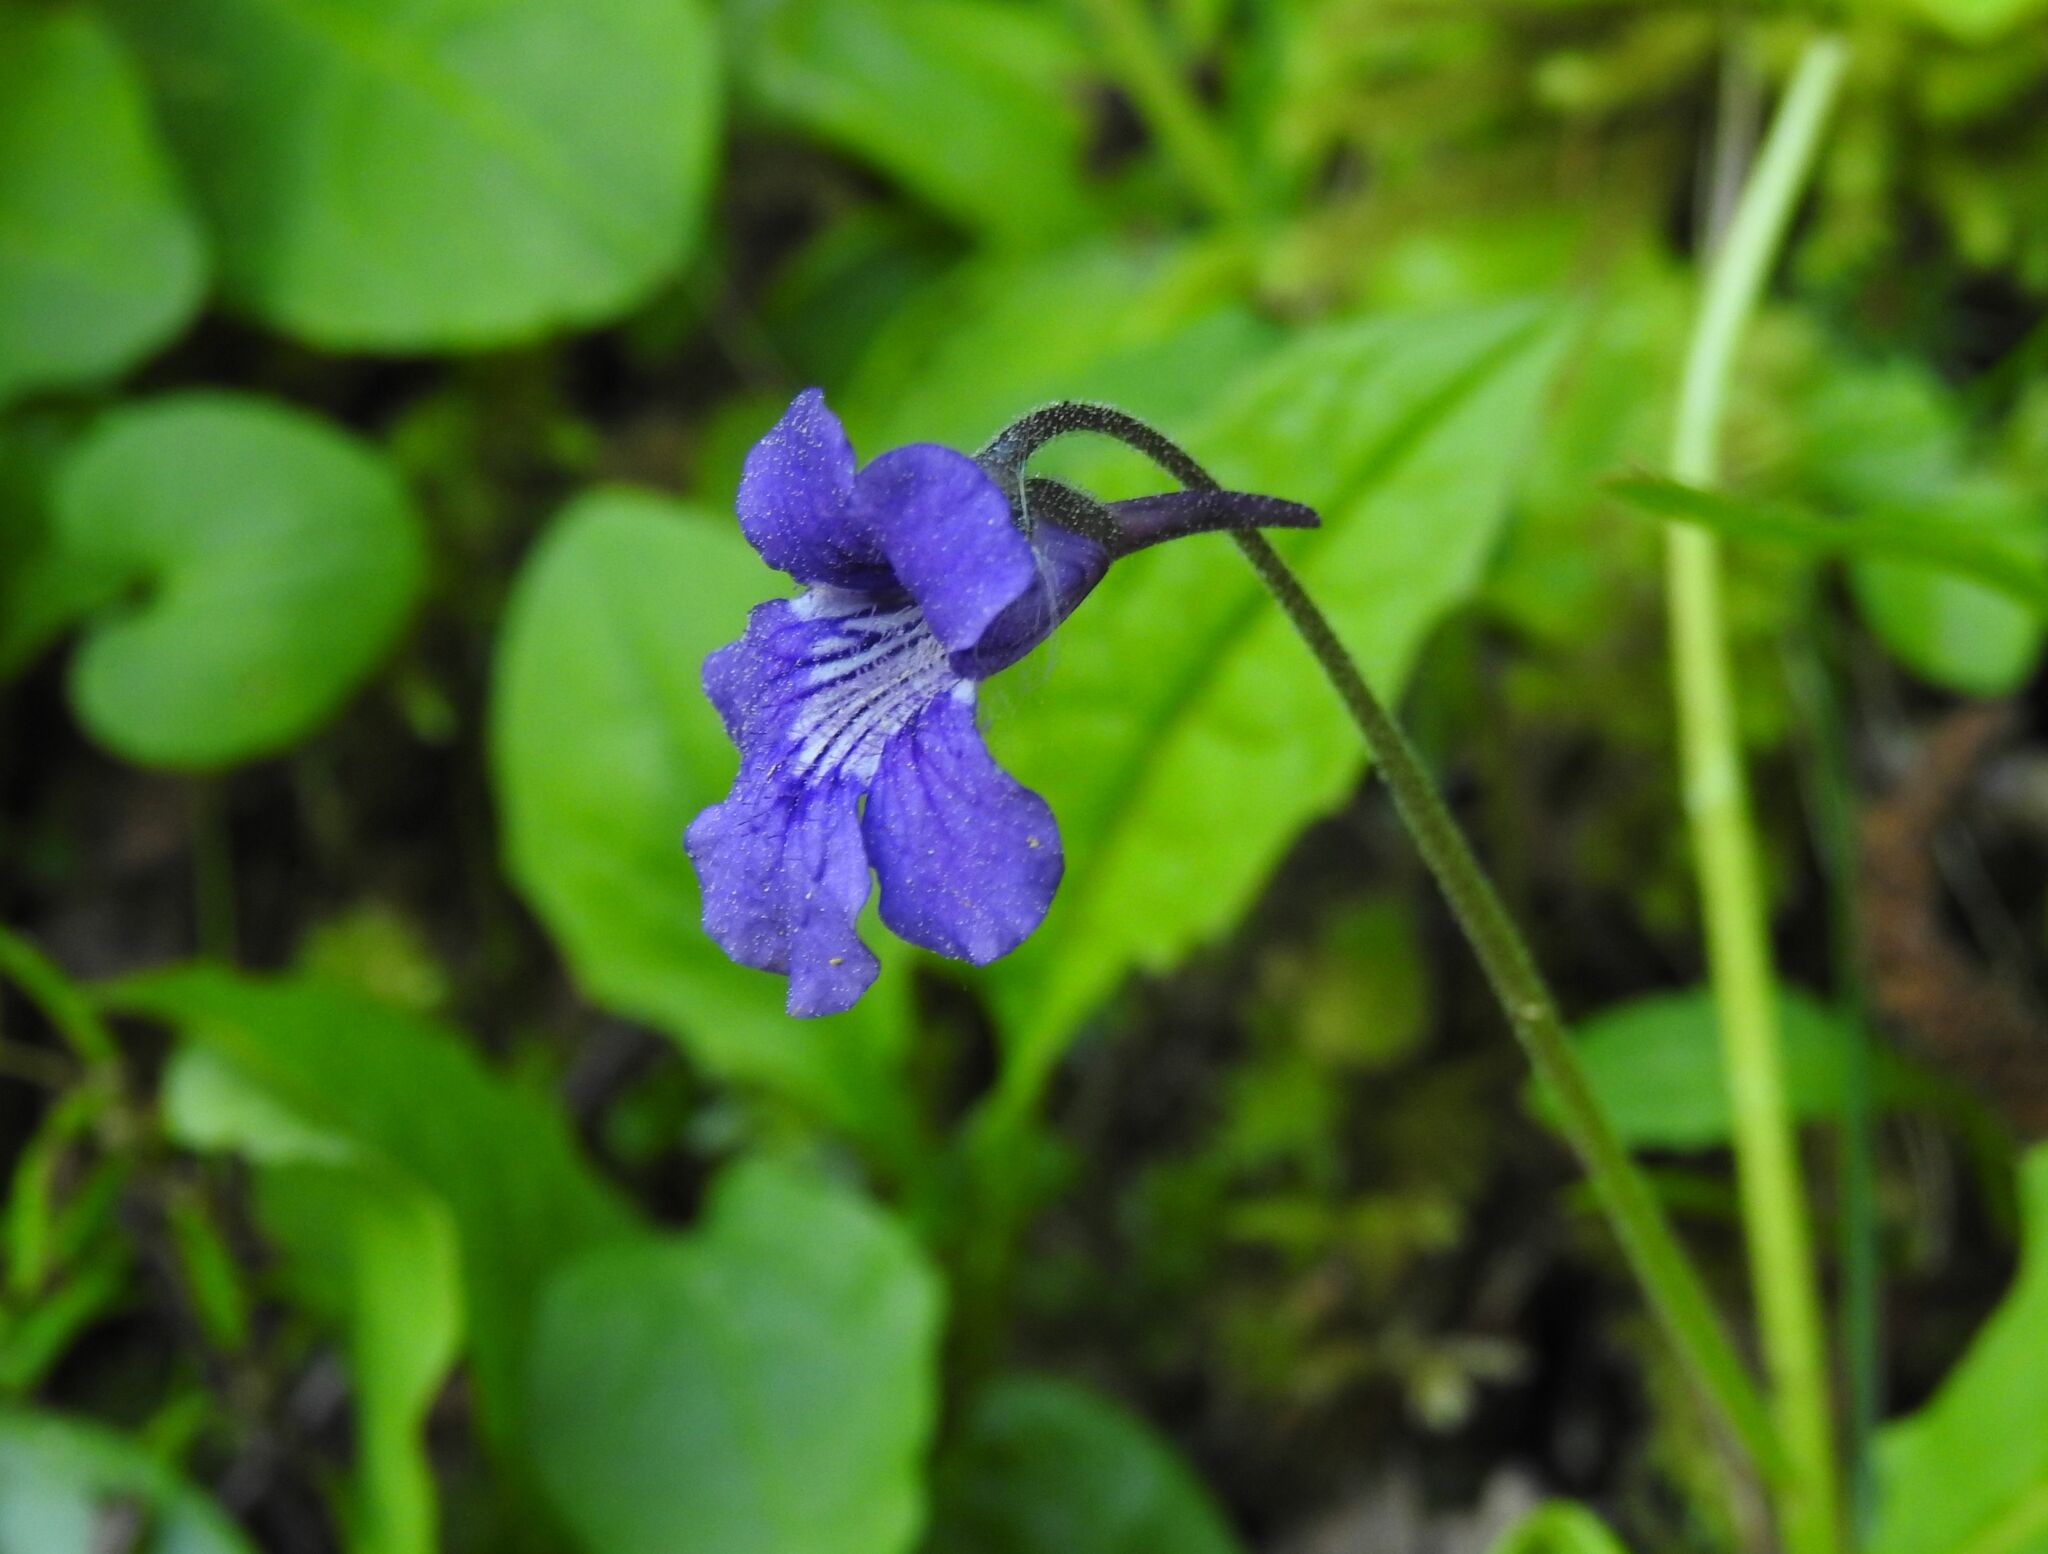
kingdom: Plantae
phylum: Tracheophyta
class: Magnoliopsida
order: Lamiales
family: Lentibulariaceae
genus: Pinguicula
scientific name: Pinguicula grandiflora
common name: Large-flowered butterwort
